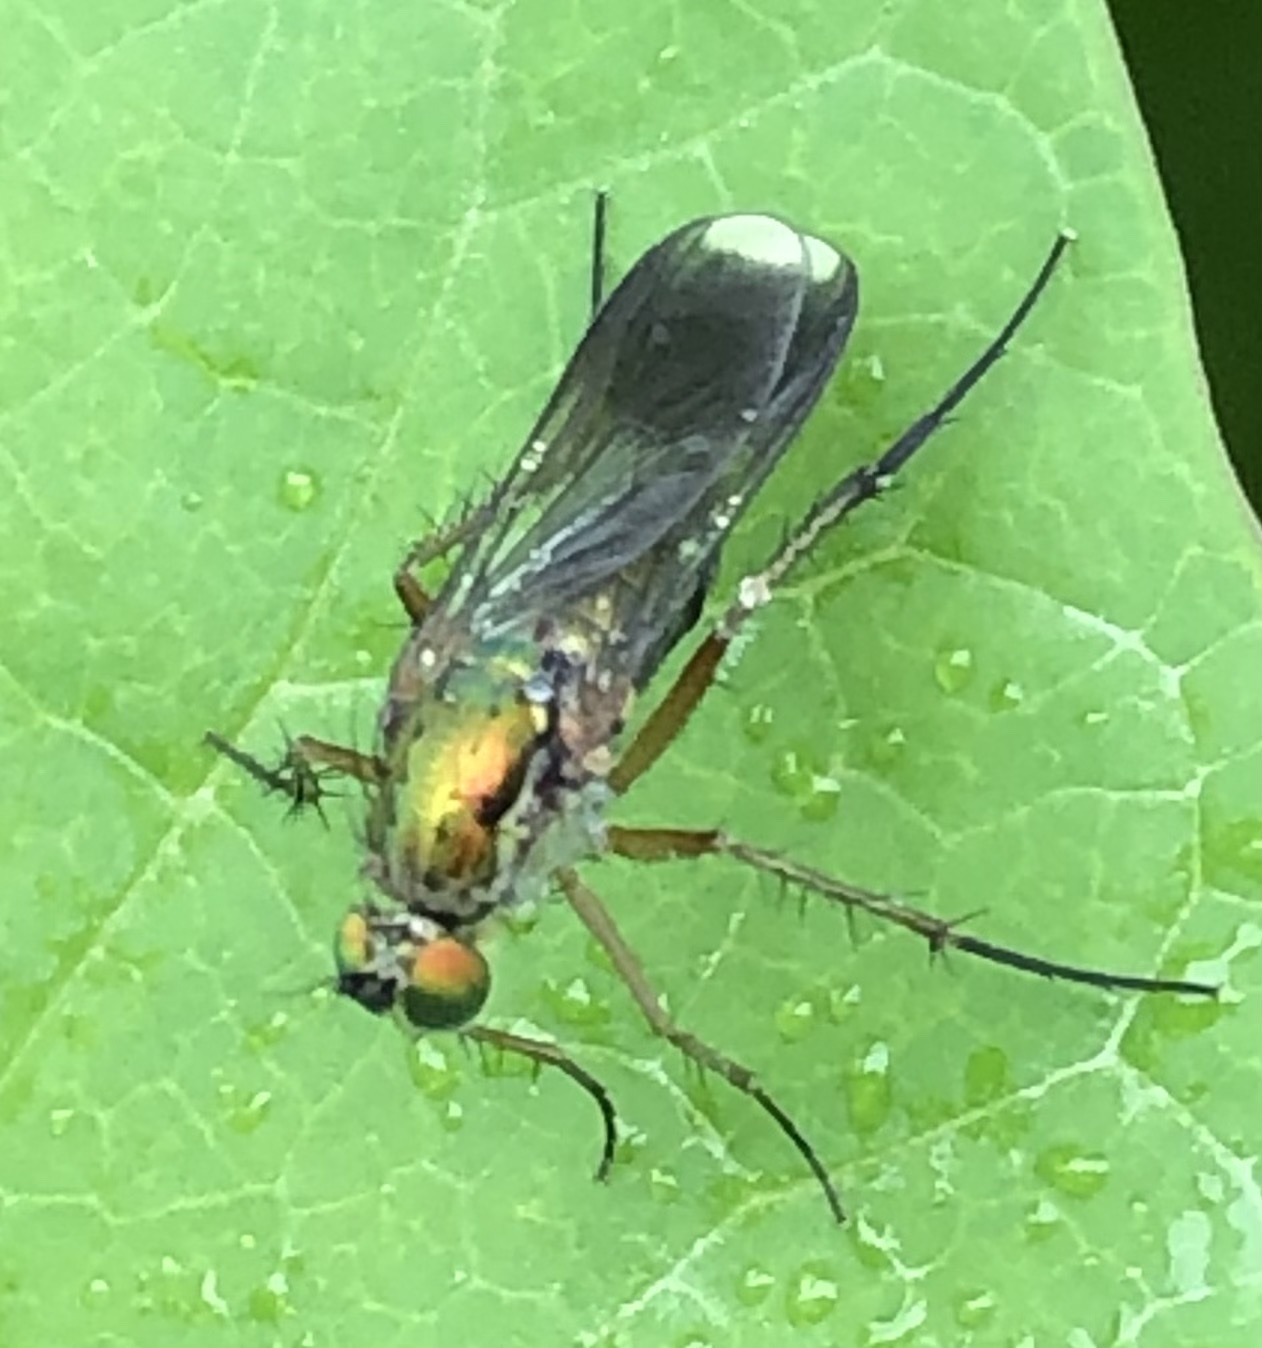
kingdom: Animalia
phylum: Arthropoda
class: Insecta
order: Diptera
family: Dolichopodidae
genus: Poecilobothrus
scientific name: Poecilobothrus nobilitatus
